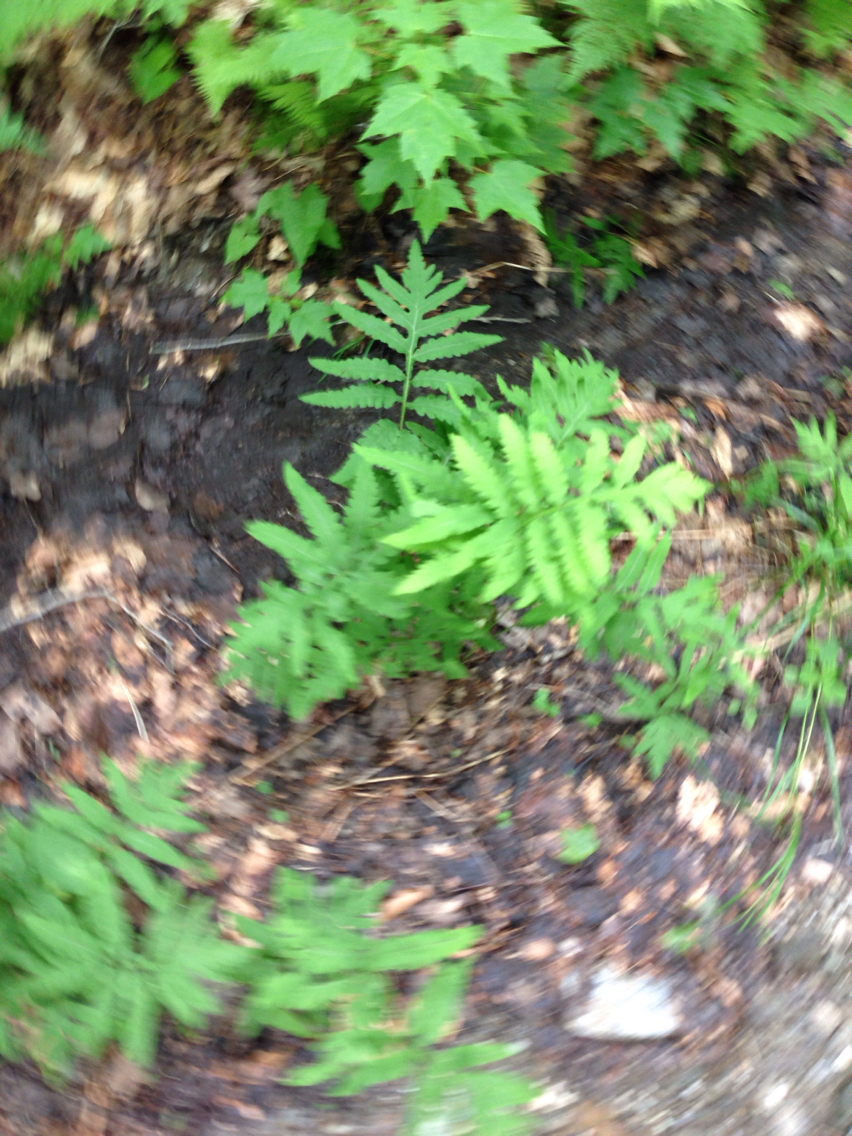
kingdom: Plantae
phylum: Tracheophyta
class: Polypodiopsida
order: Polypodiales
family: Onocleaceae
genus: Onoclea
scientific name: Onoclea sensibilis
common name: Sensitive fern
